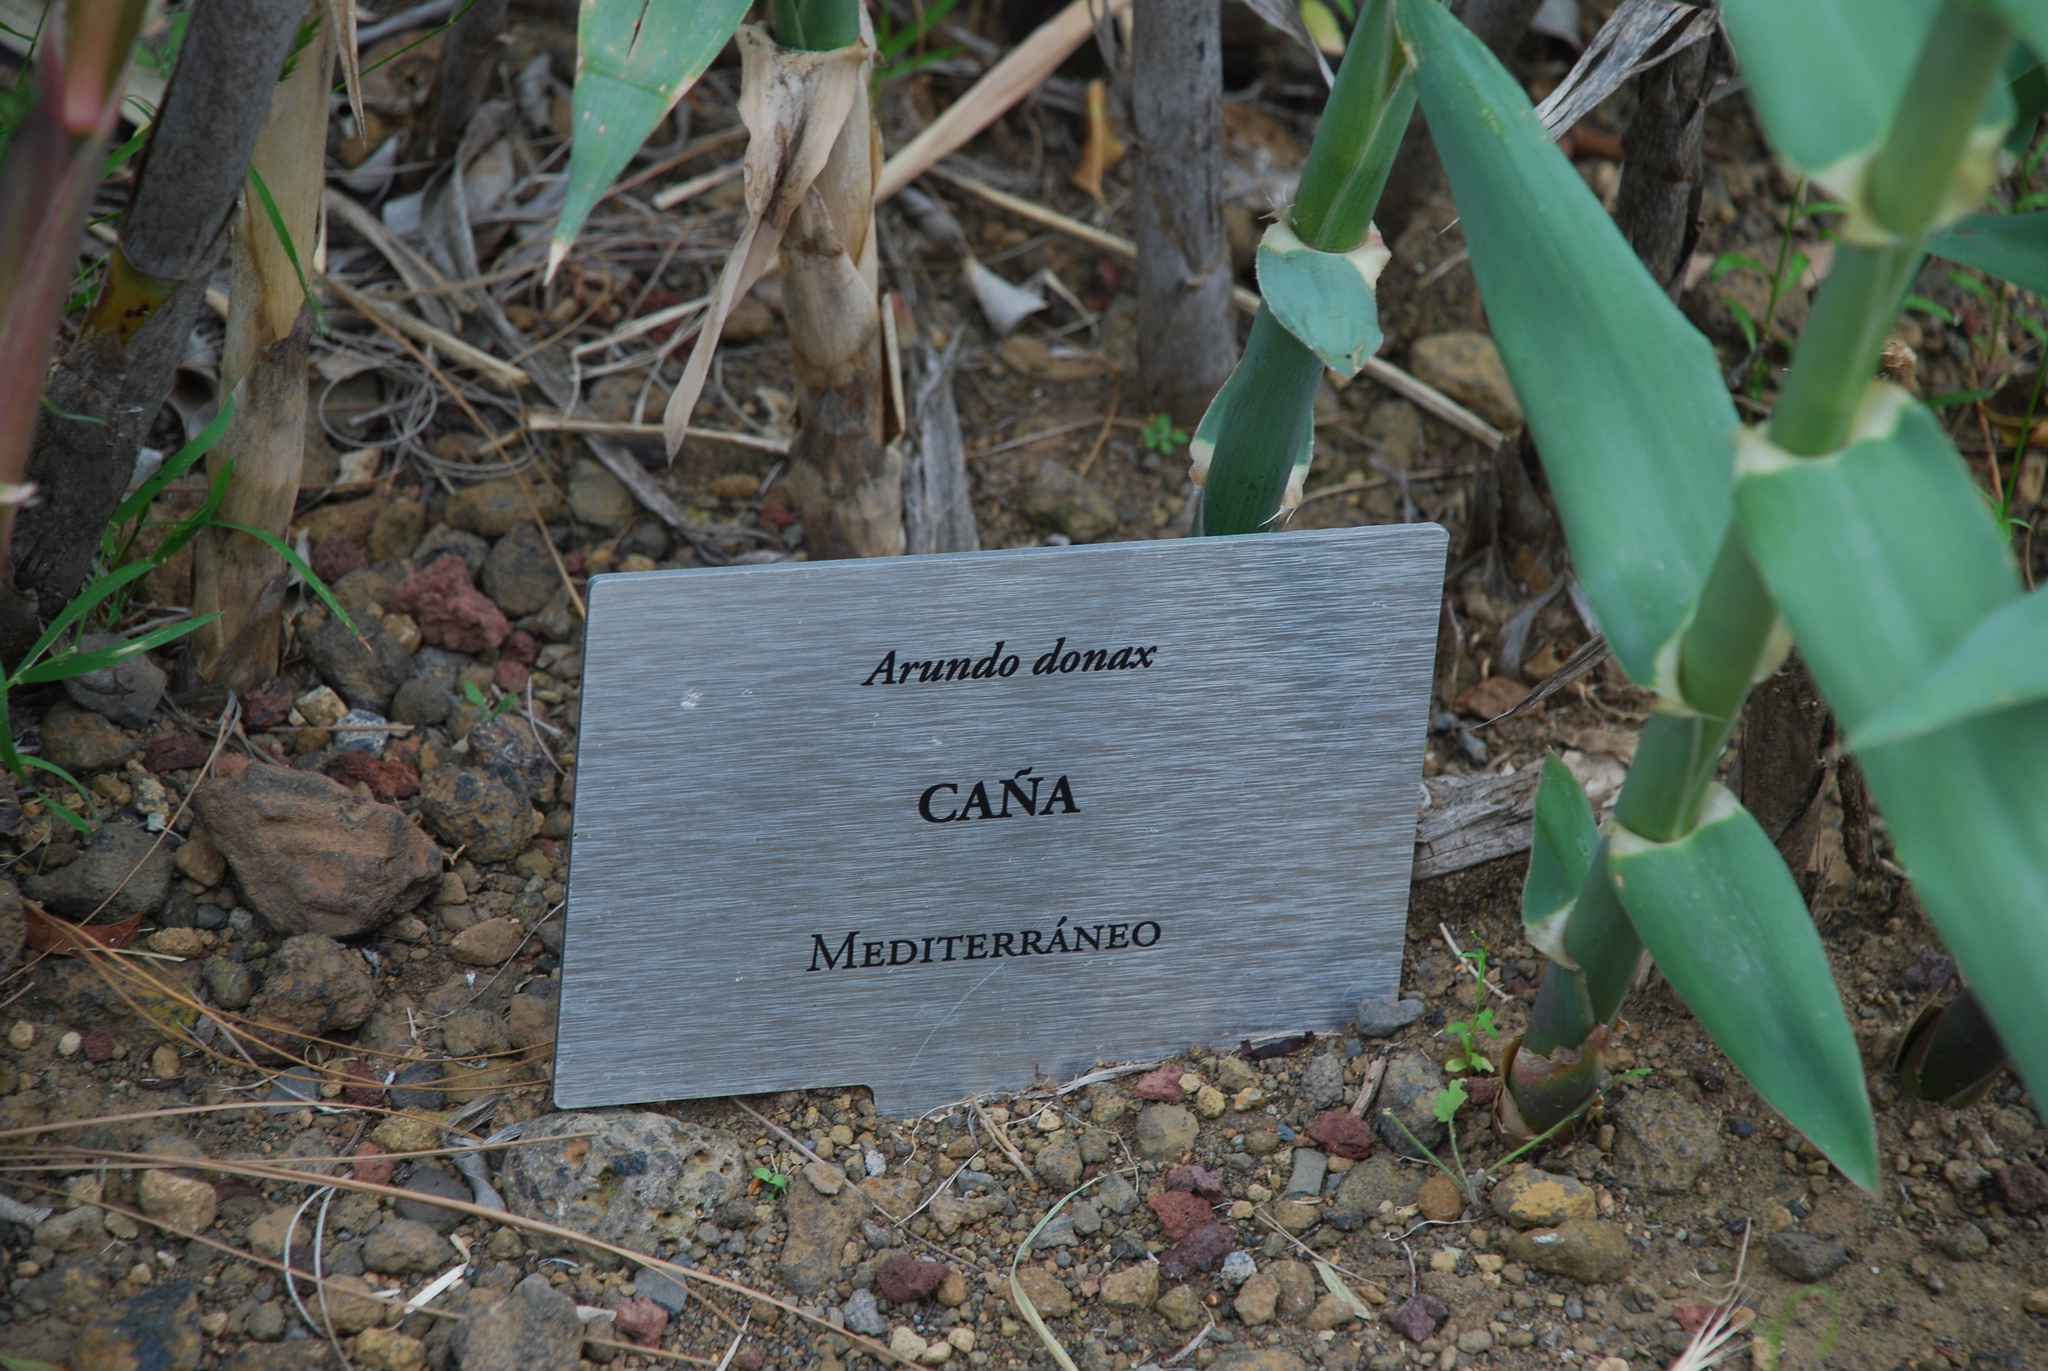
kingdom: Plantae
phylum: Tracheophyta
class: Liliopsida
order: Poales
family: Poaceae
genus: Arundo
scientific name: Arundo donax
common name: Giant reed
